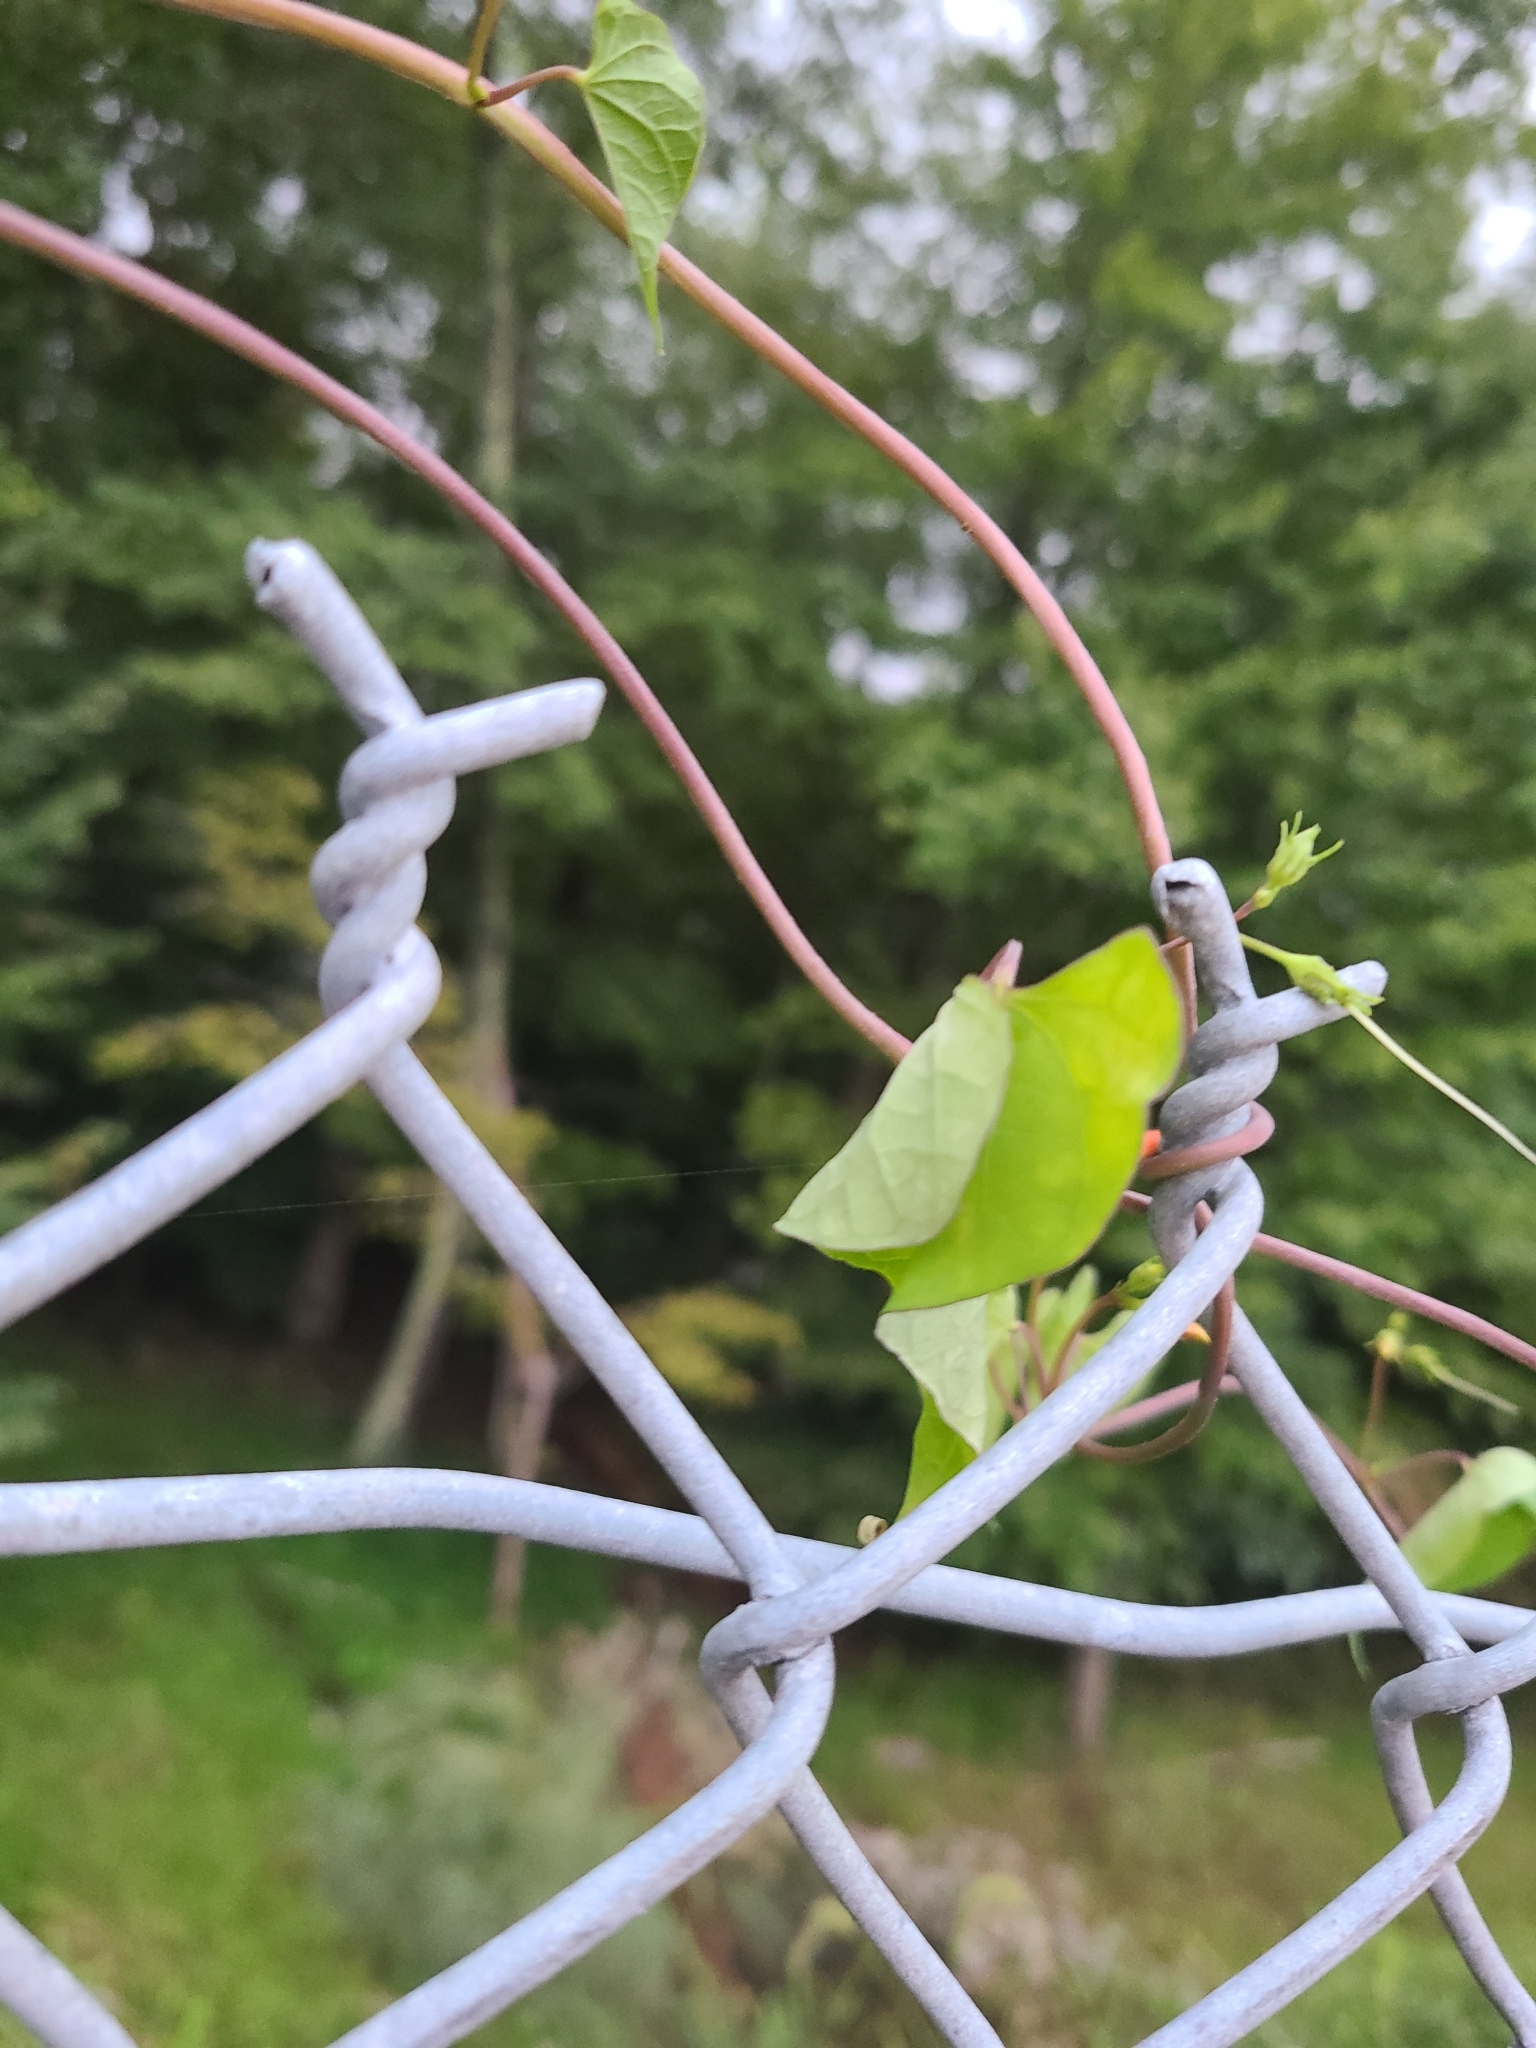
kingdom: Plantae
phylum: Tracheophyta
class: Magnoliopsida
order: Solanales
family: Convolvulaceae
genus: Ipomoea
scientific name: Ipomoea coccinea
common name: Red morning-glory
